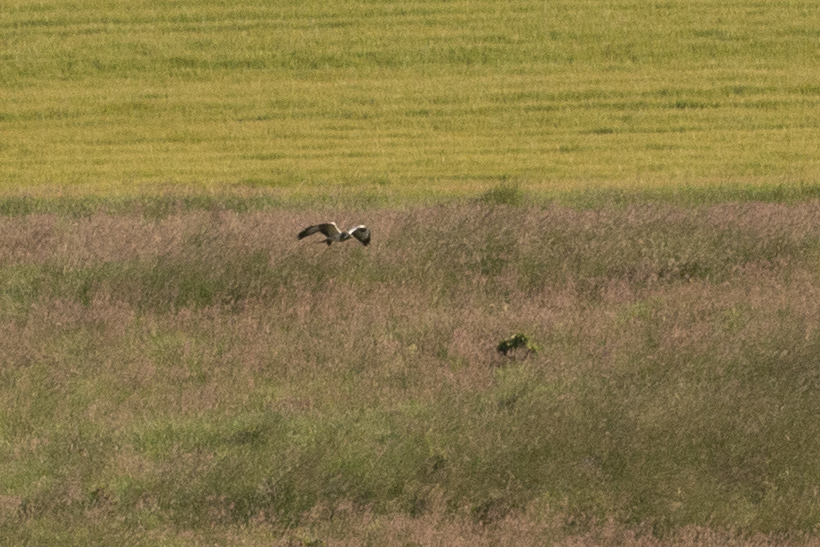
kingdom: Animalia
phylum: Chordata
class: Aves
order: Accipitriformes
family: Accipitridae
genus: Buteo
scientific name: Buteo buteo
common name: Common buzzard
